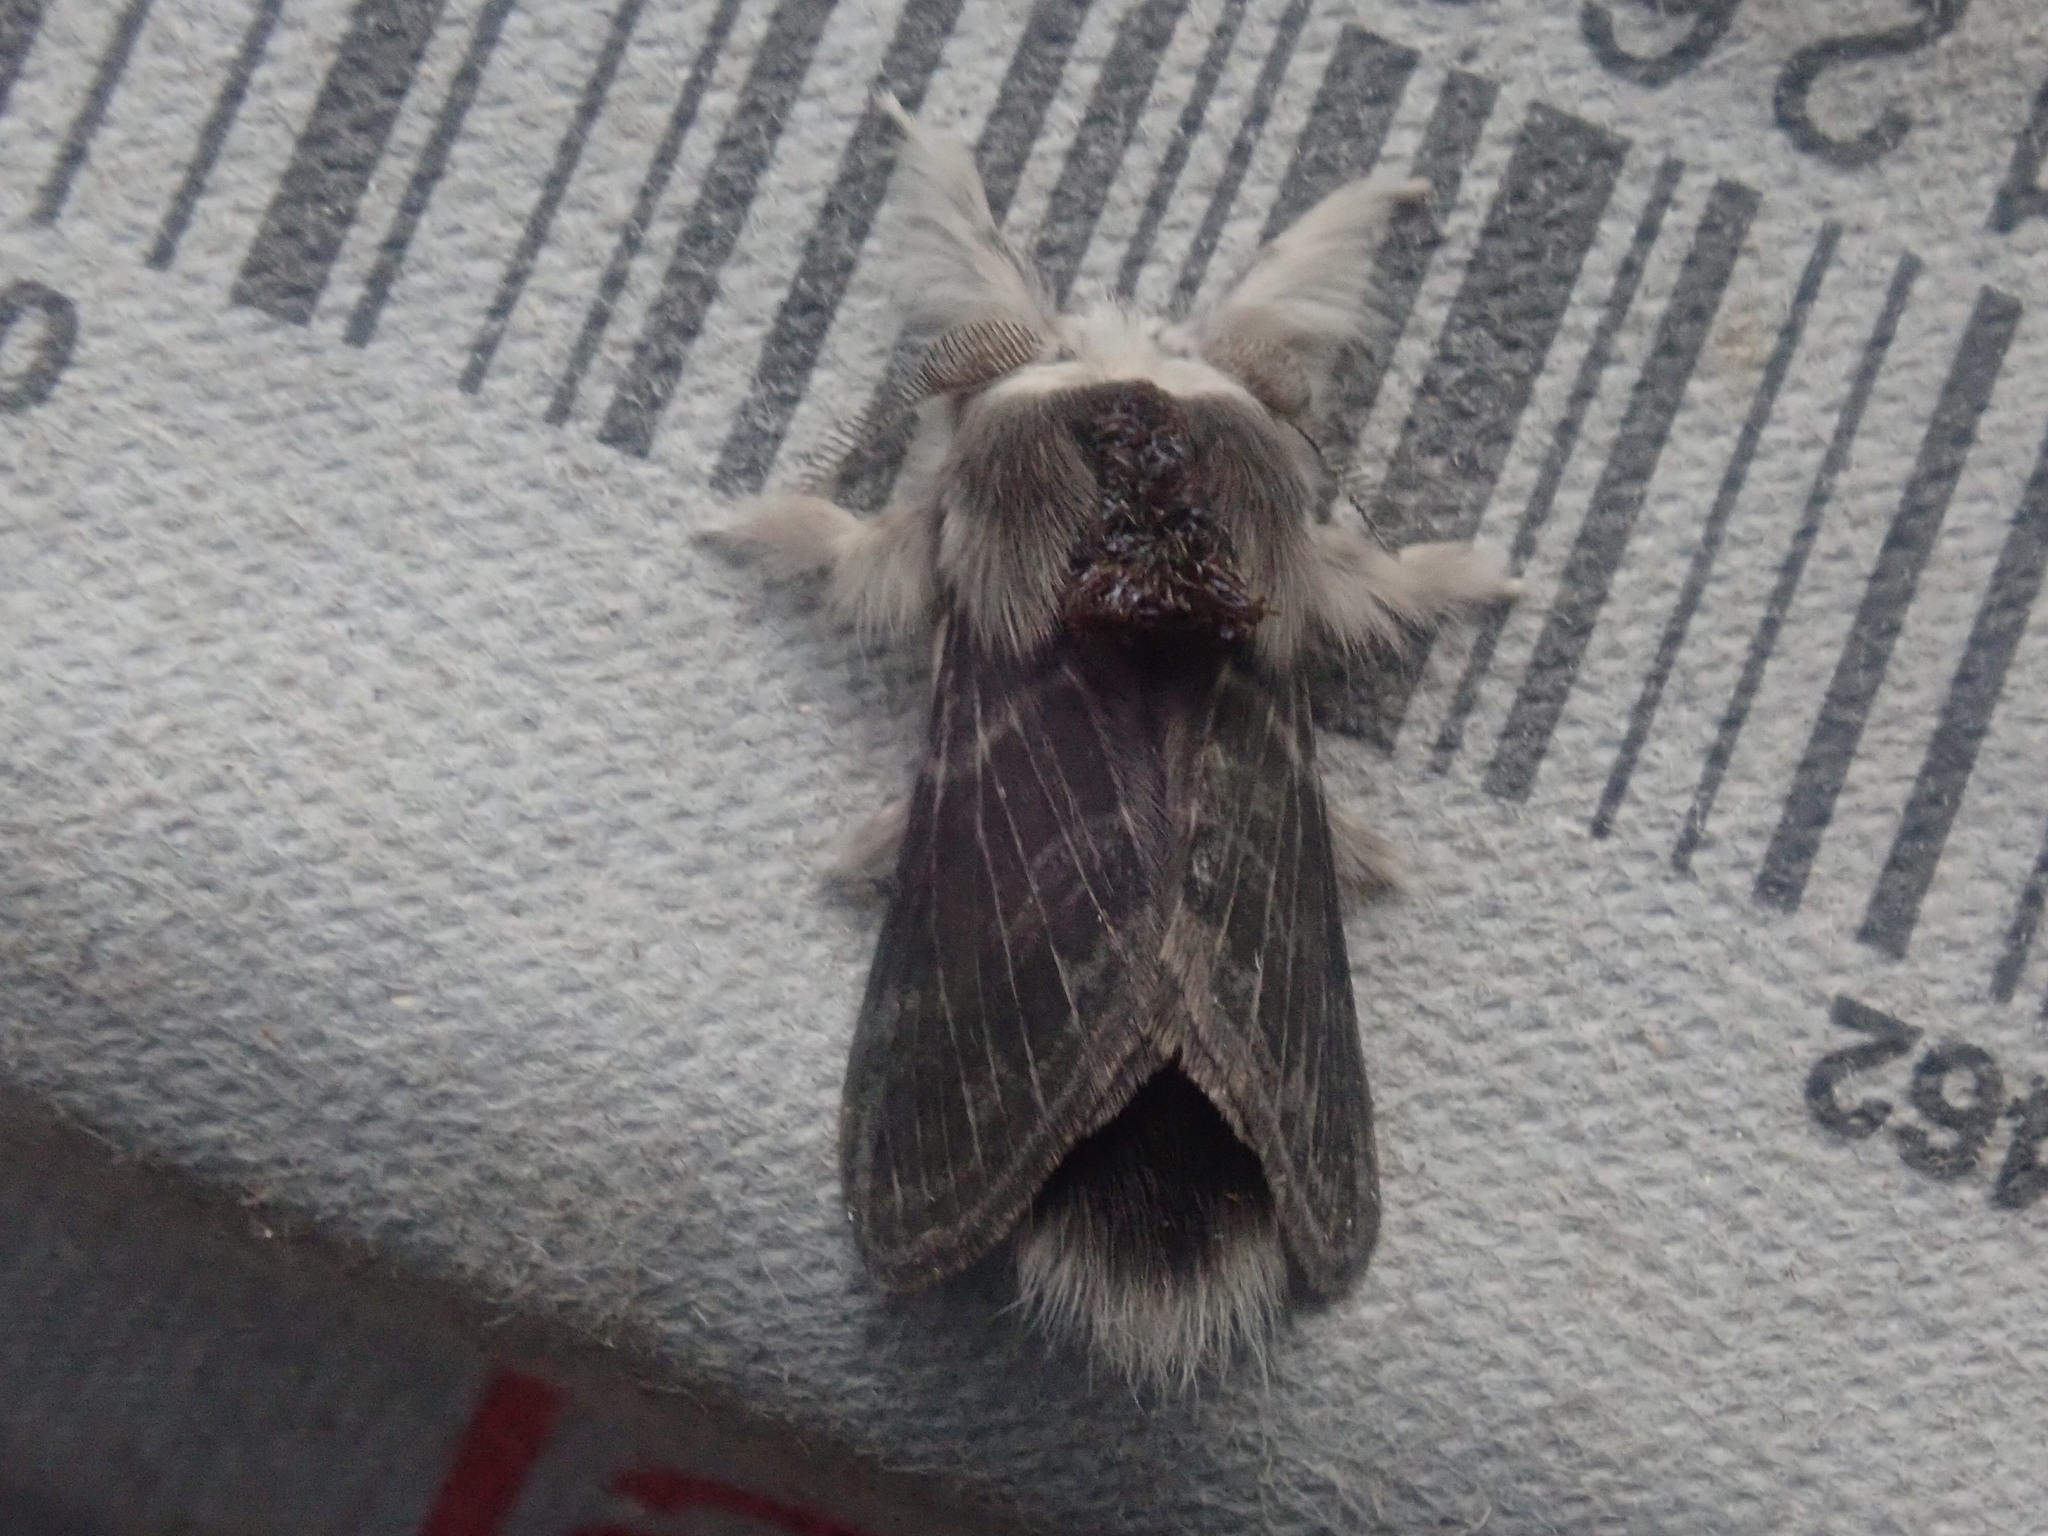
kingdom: Animalia
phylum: Arthropoda
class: Insecta
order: Lepidoptera
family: Lasiocampidae
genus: Tolype
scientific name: Tolype laricis
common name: Larch tolype moth
